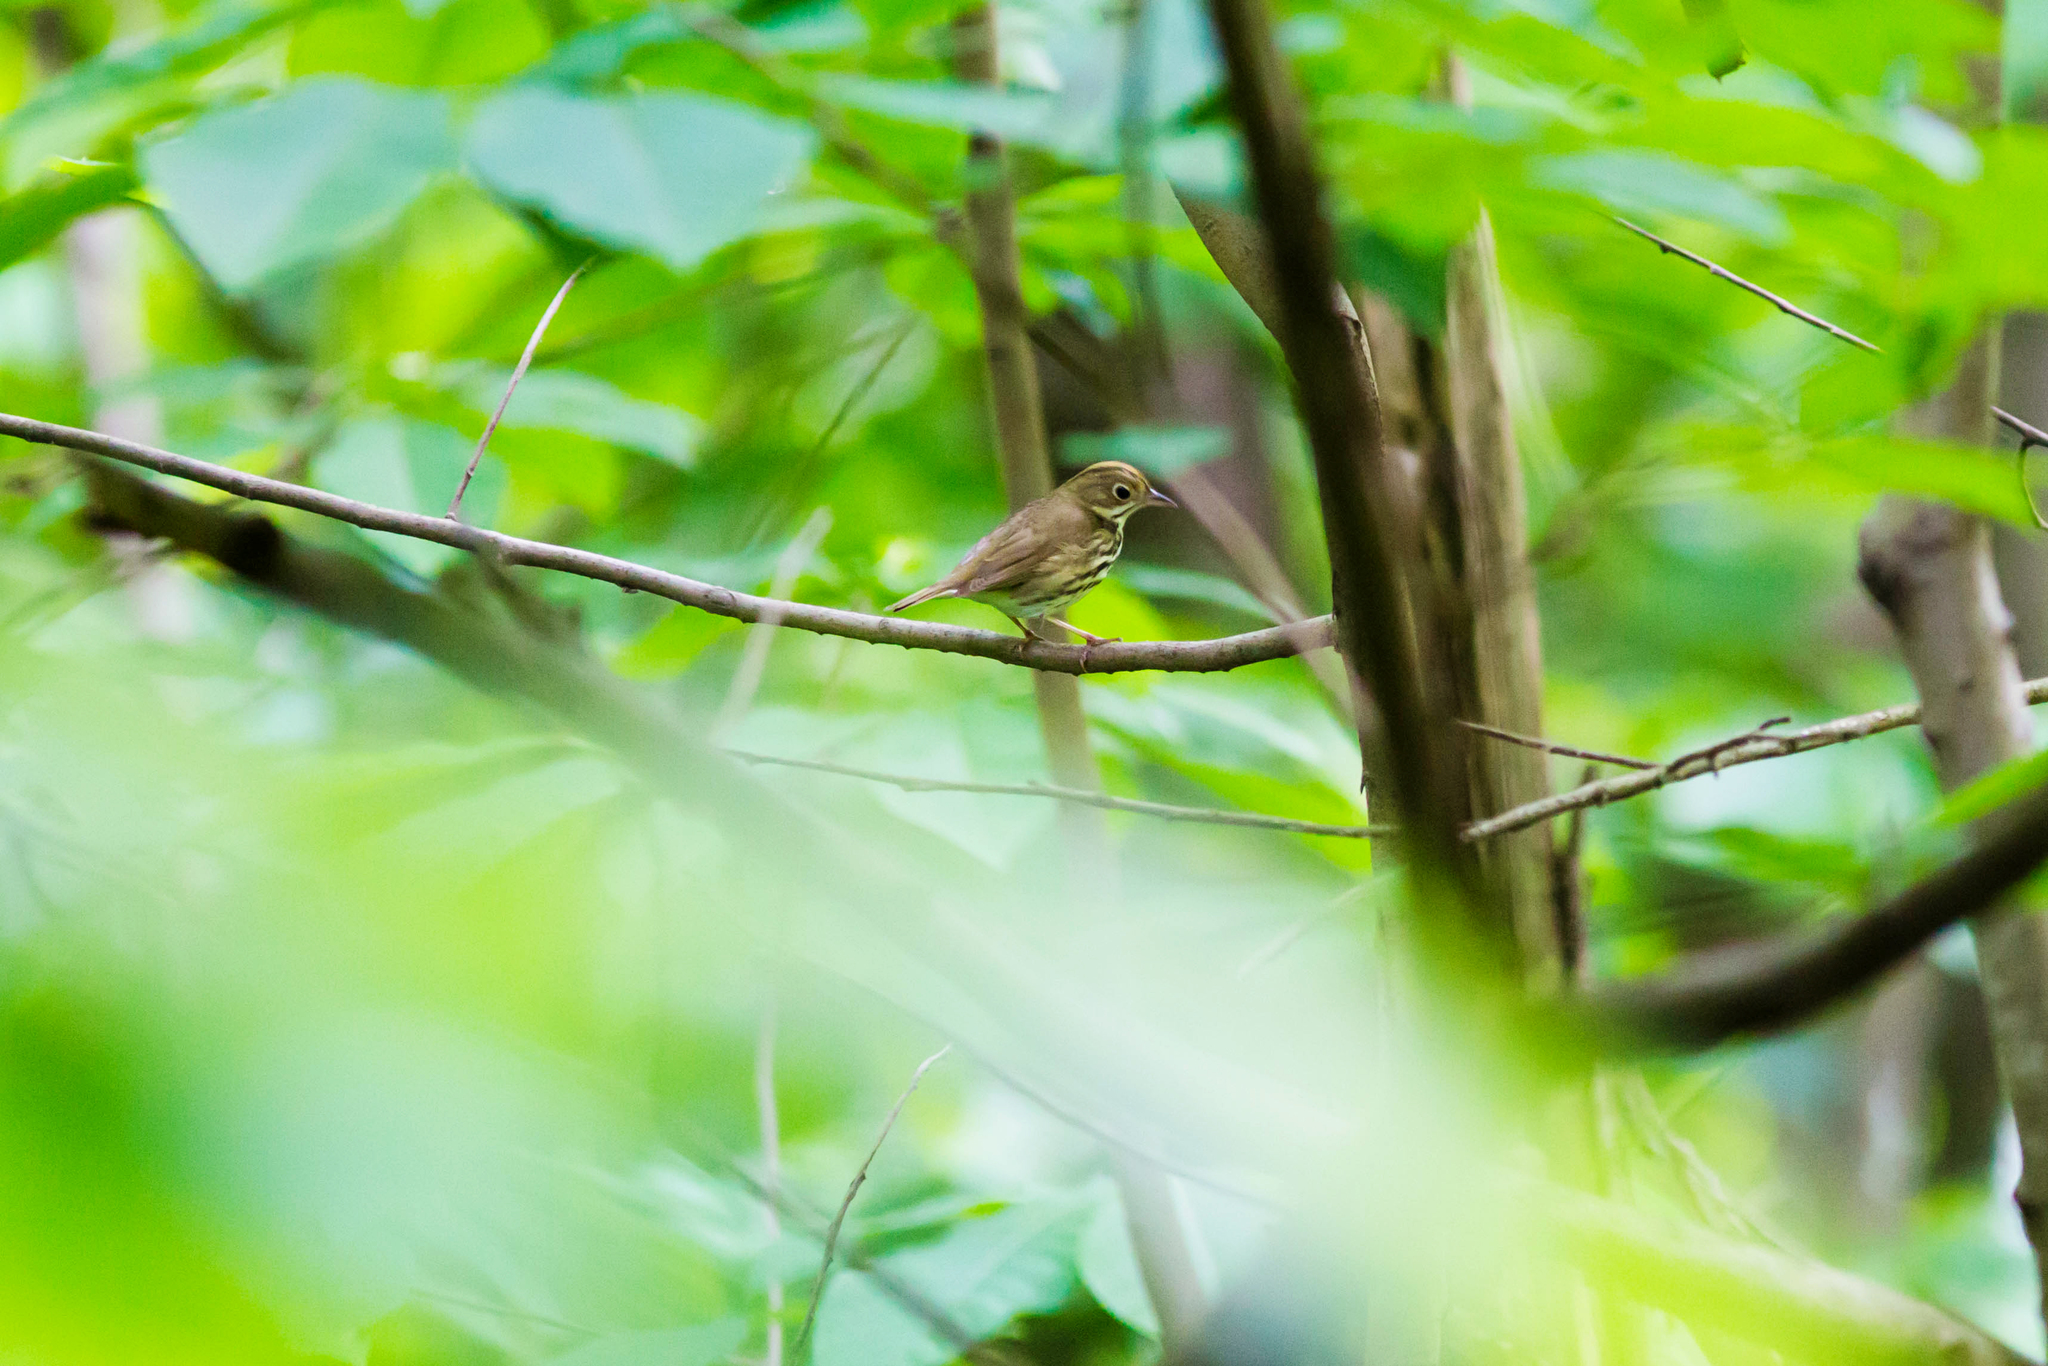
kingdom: Animalia
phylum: Chordata
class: Aves
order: Passeriformes
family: Parulidae
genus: Seiurus
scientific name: Seiurus aurocapilla
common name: Ovenbird
